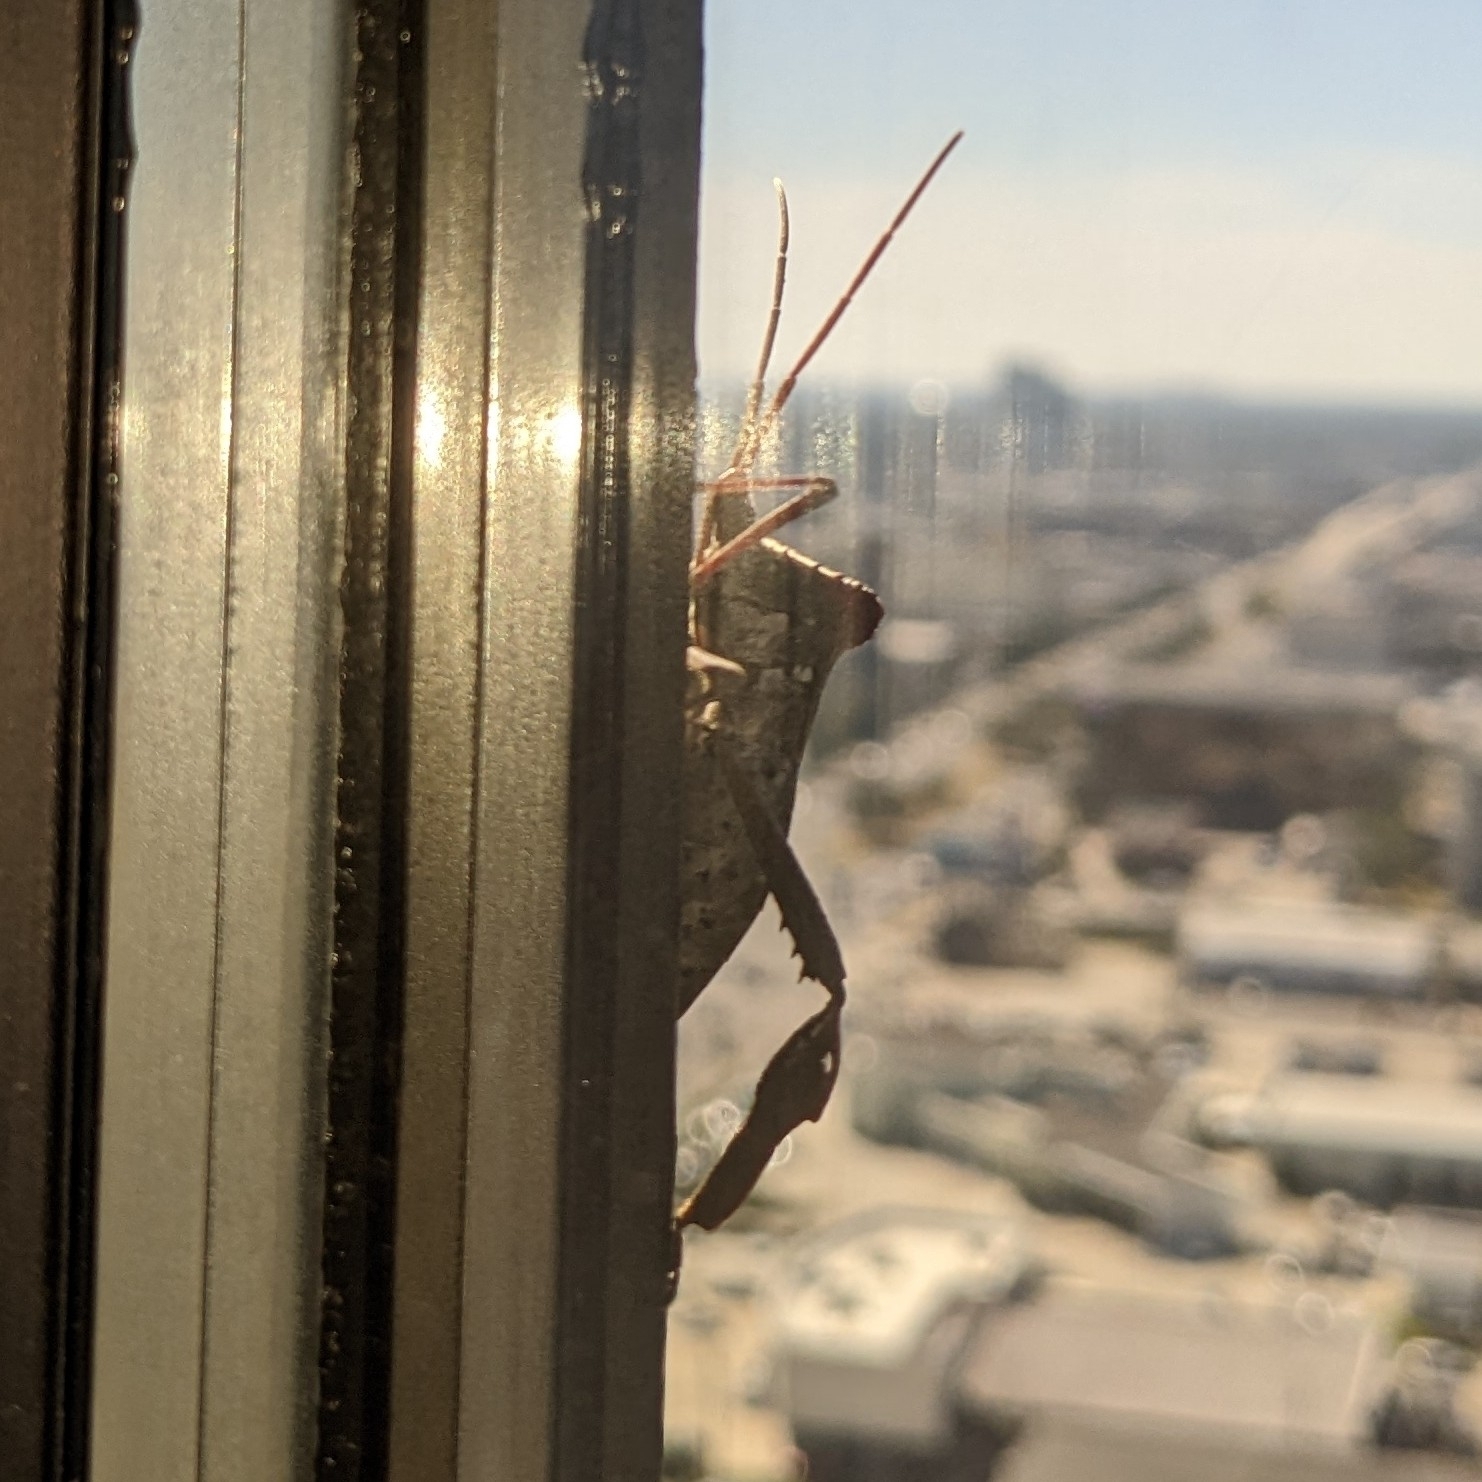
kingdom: Animalia
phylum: Arthropoda
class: Insecta
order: Hemiptera
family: Coreidae
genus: Acanthocephala
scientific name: Acanthocephala declivis
